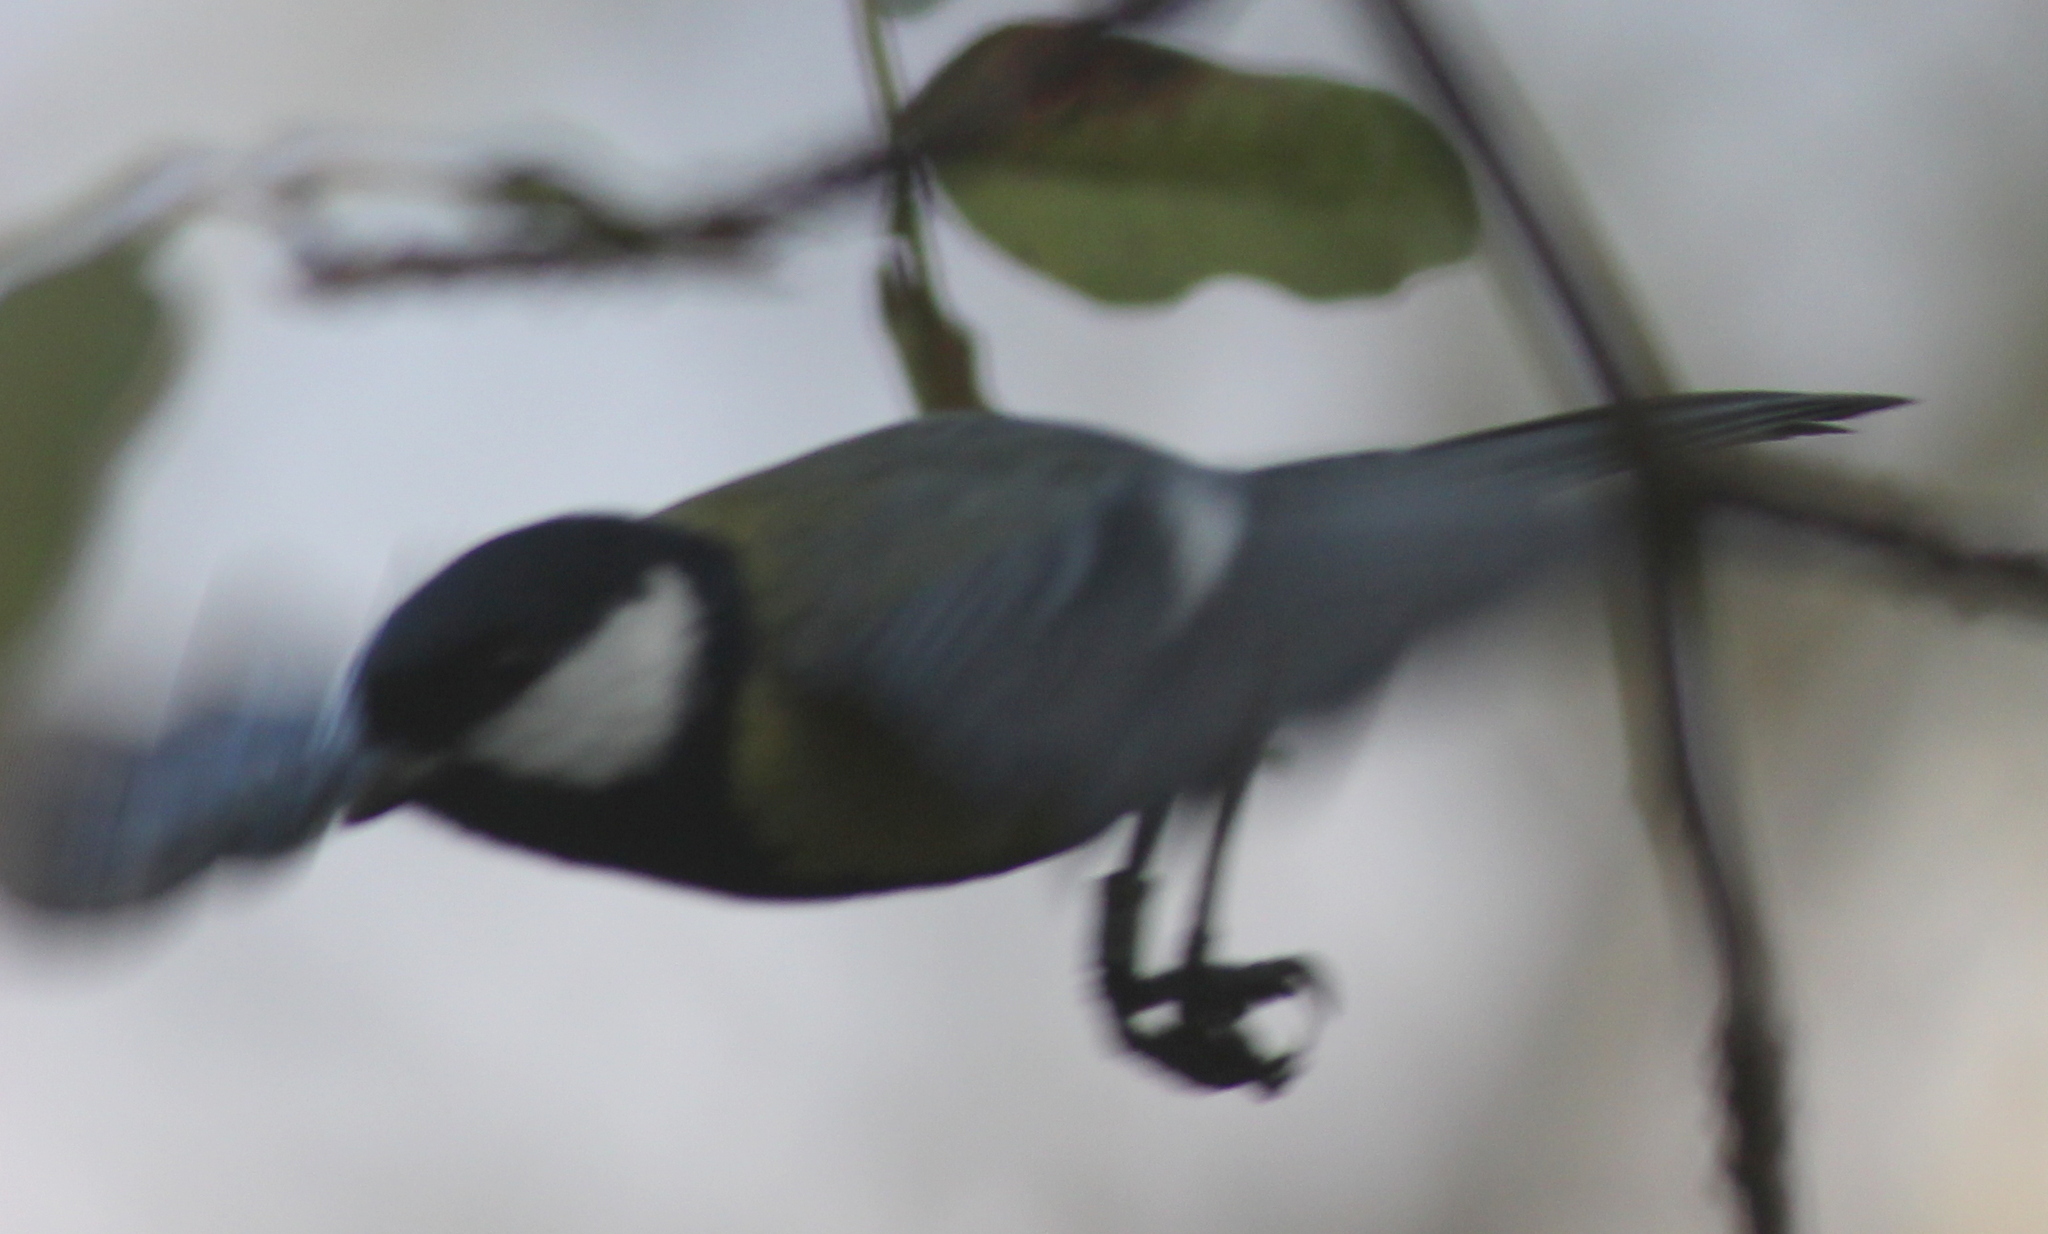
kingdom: Animalia
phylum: Chordata
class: Aves
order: Passeriformes
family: Paridae
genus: Parus
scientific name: Parus major
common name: Great tit
